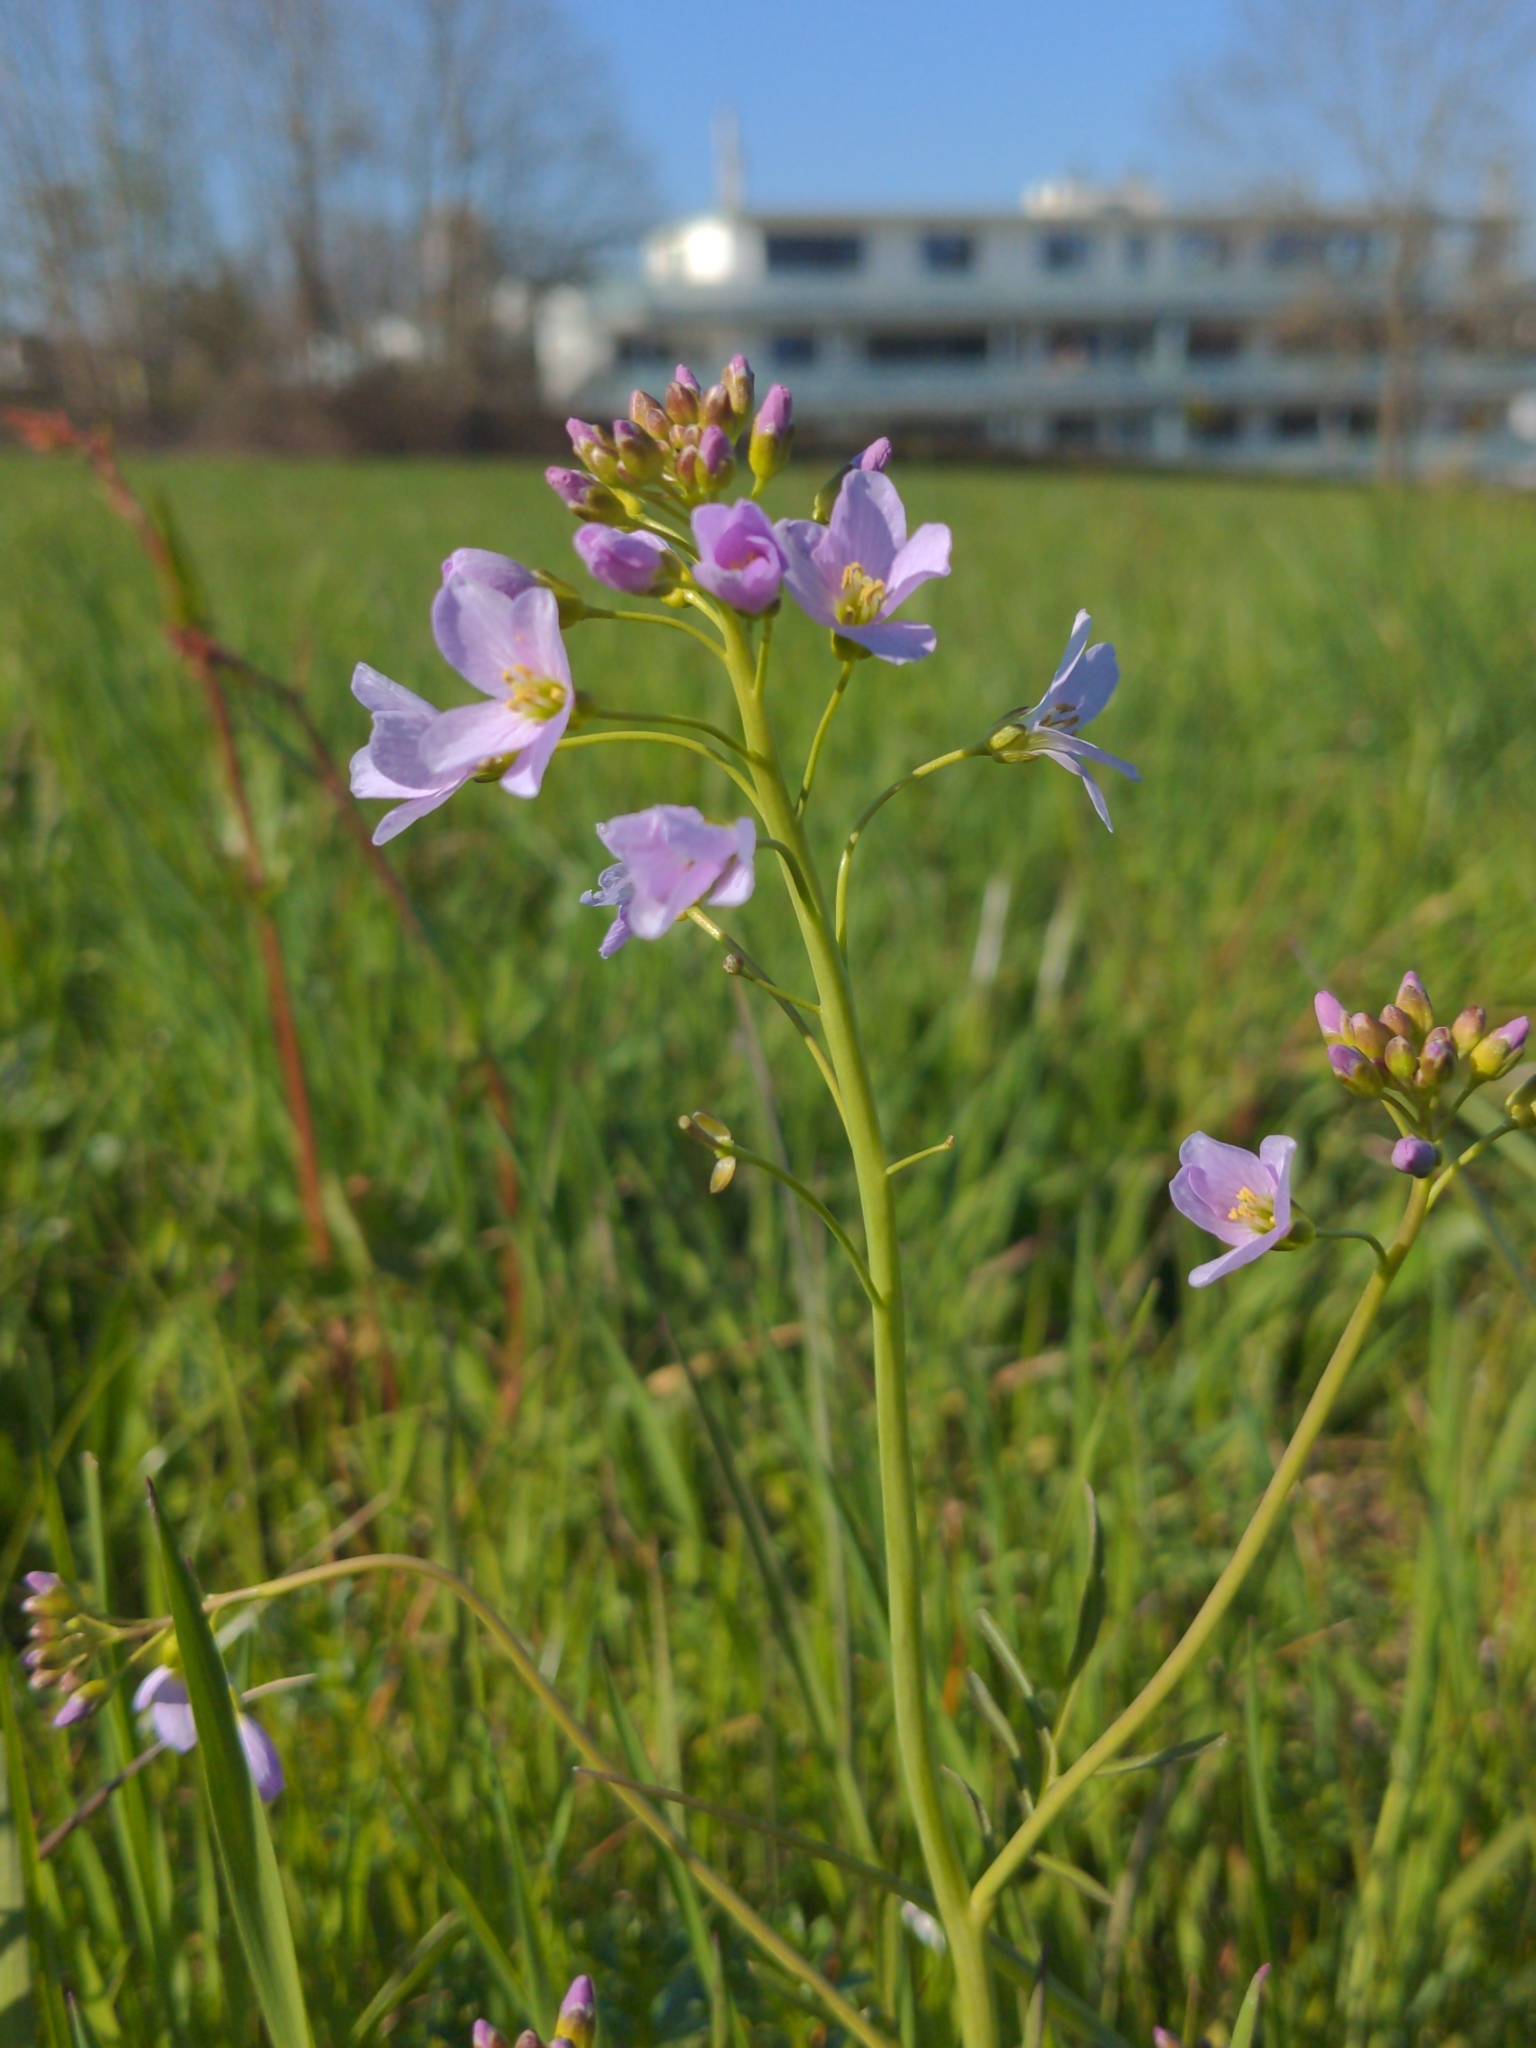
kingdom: Plantae
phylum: Tracheophyta
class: Magnoliopsida
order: Brassicales
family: Brassicaceae
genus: Cardamine
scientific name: Cardamine pratensis
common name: Cuckoo flower
